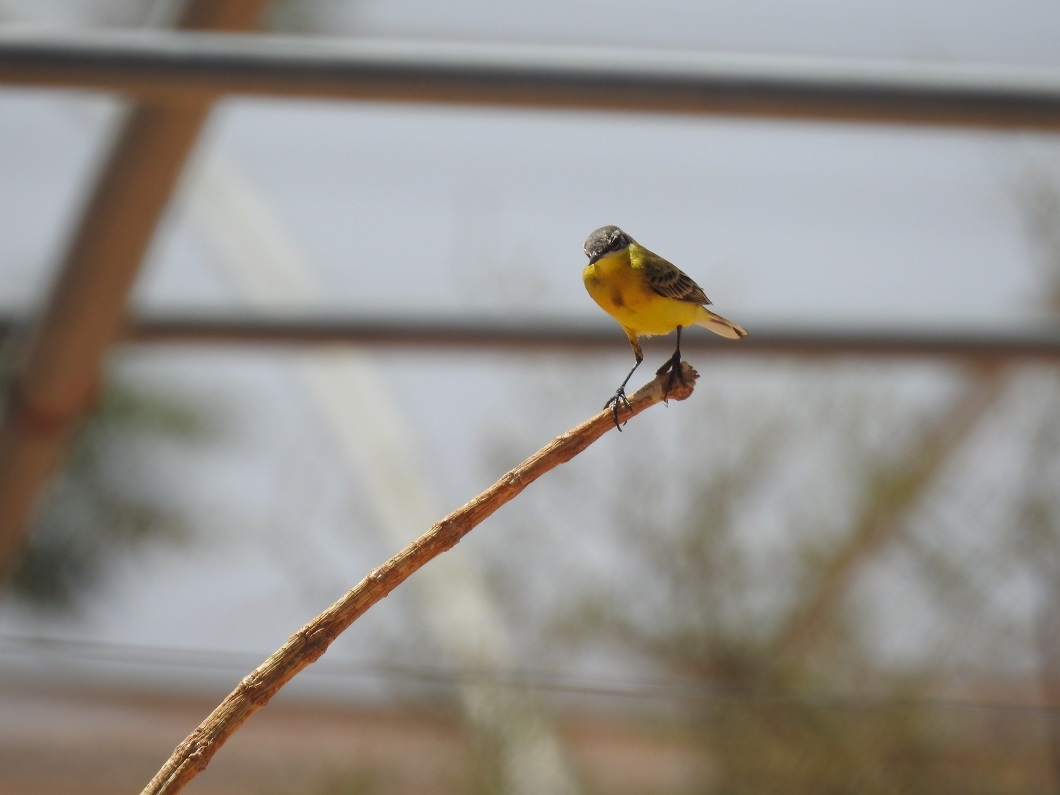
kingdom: Animalia
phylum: Chordata
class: Aves
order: Passeriformes
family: Motacillidae
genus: Motacilla
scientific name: Motacilla flava
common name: Western yellow wagtail
